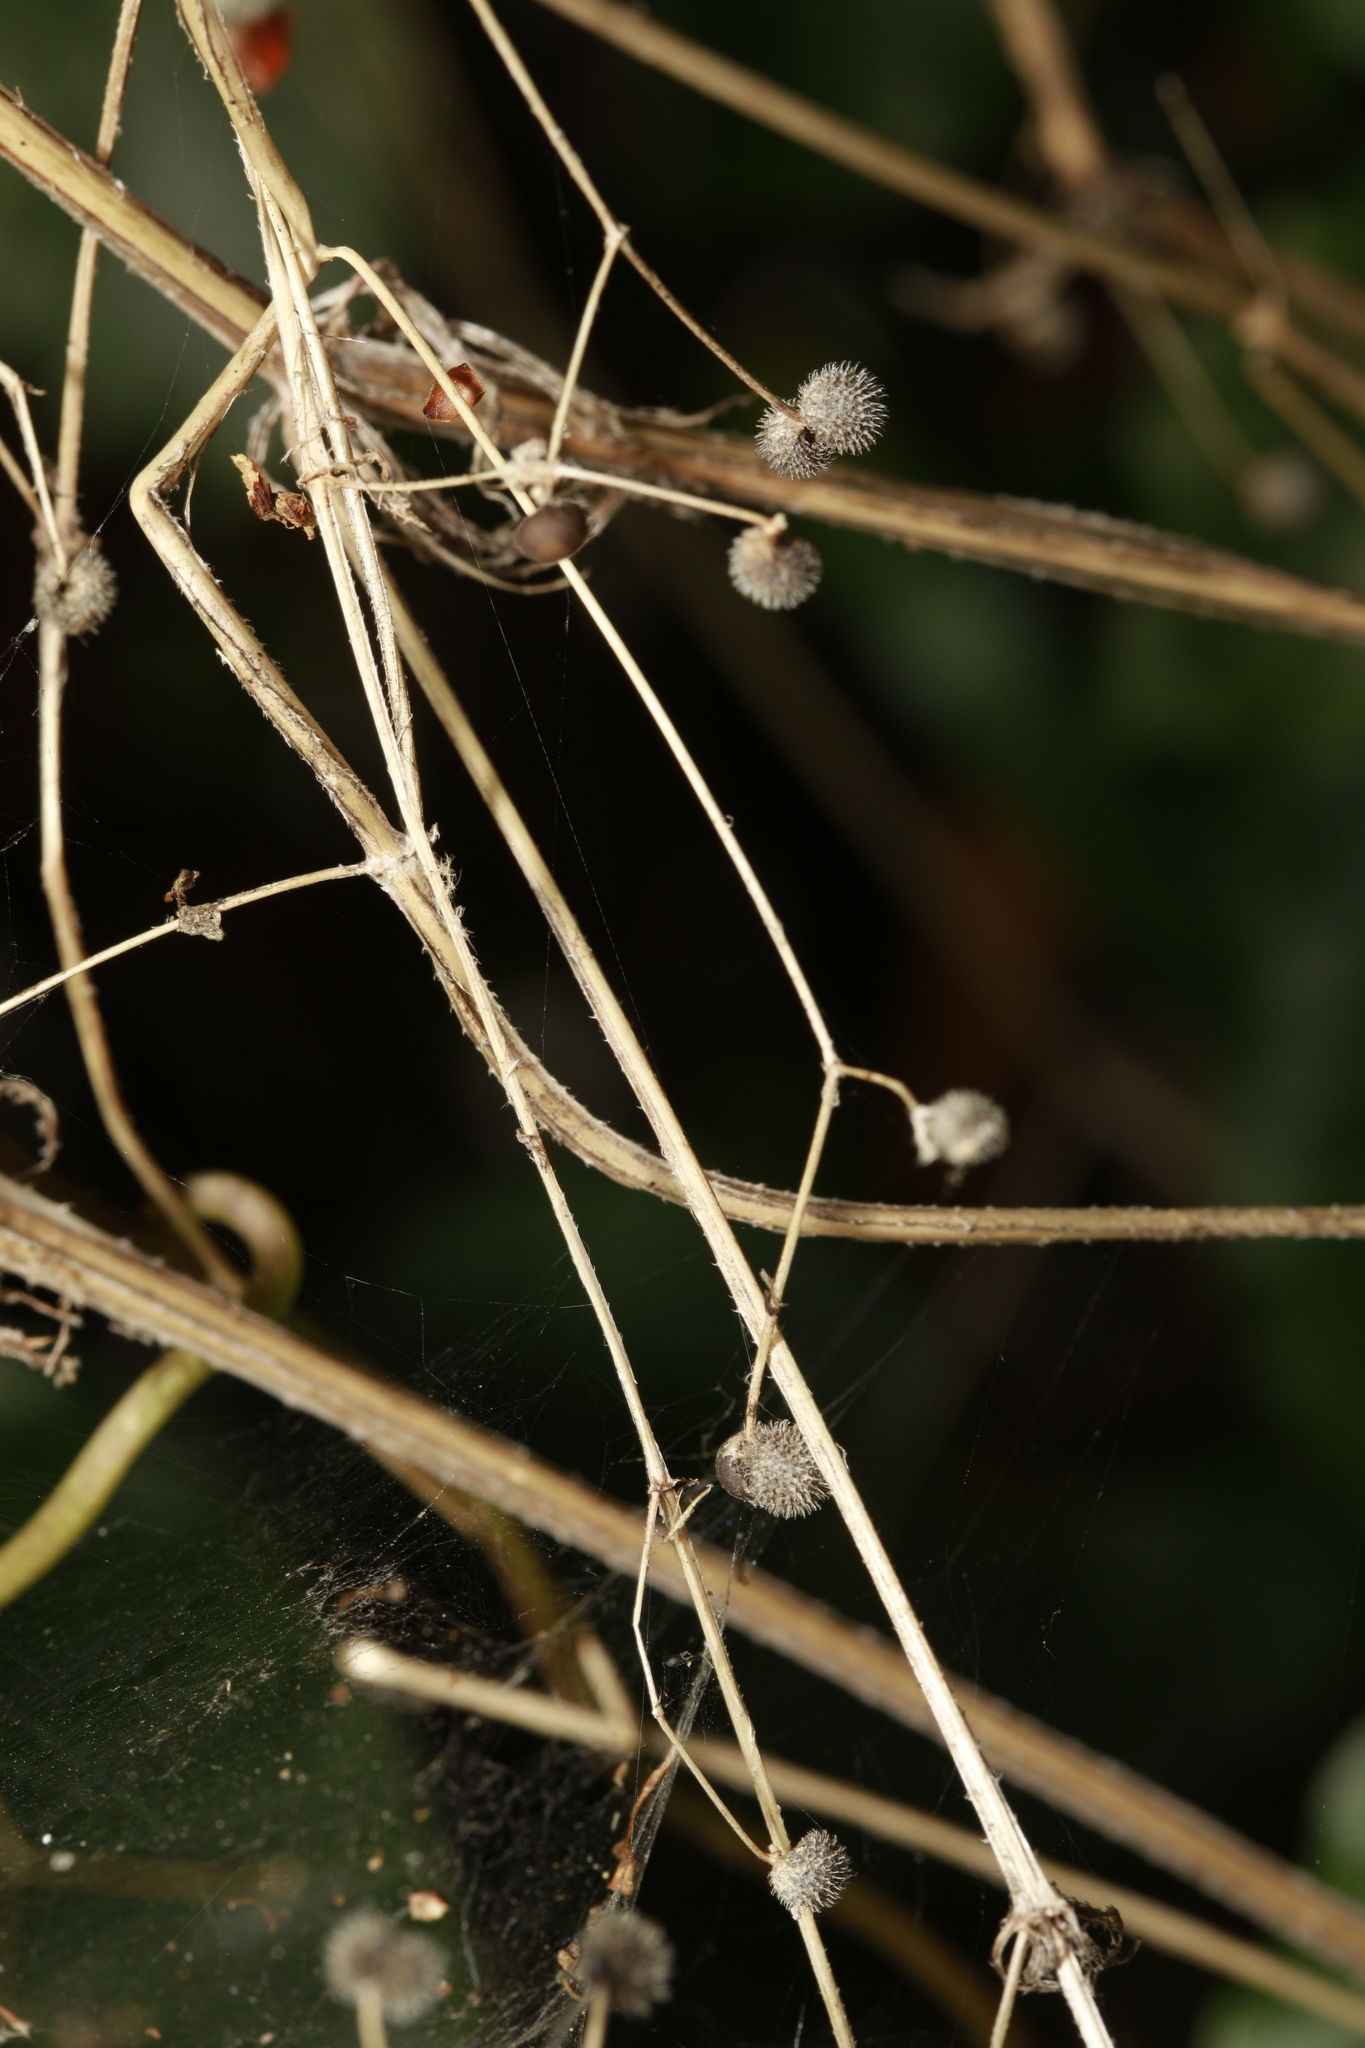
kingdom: Plantae
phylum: Tracheophyta
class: Magnoliopsida
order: Gentianales
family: Rubiaceae
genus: Galium
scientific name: Galium aparine
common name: Cleavers
